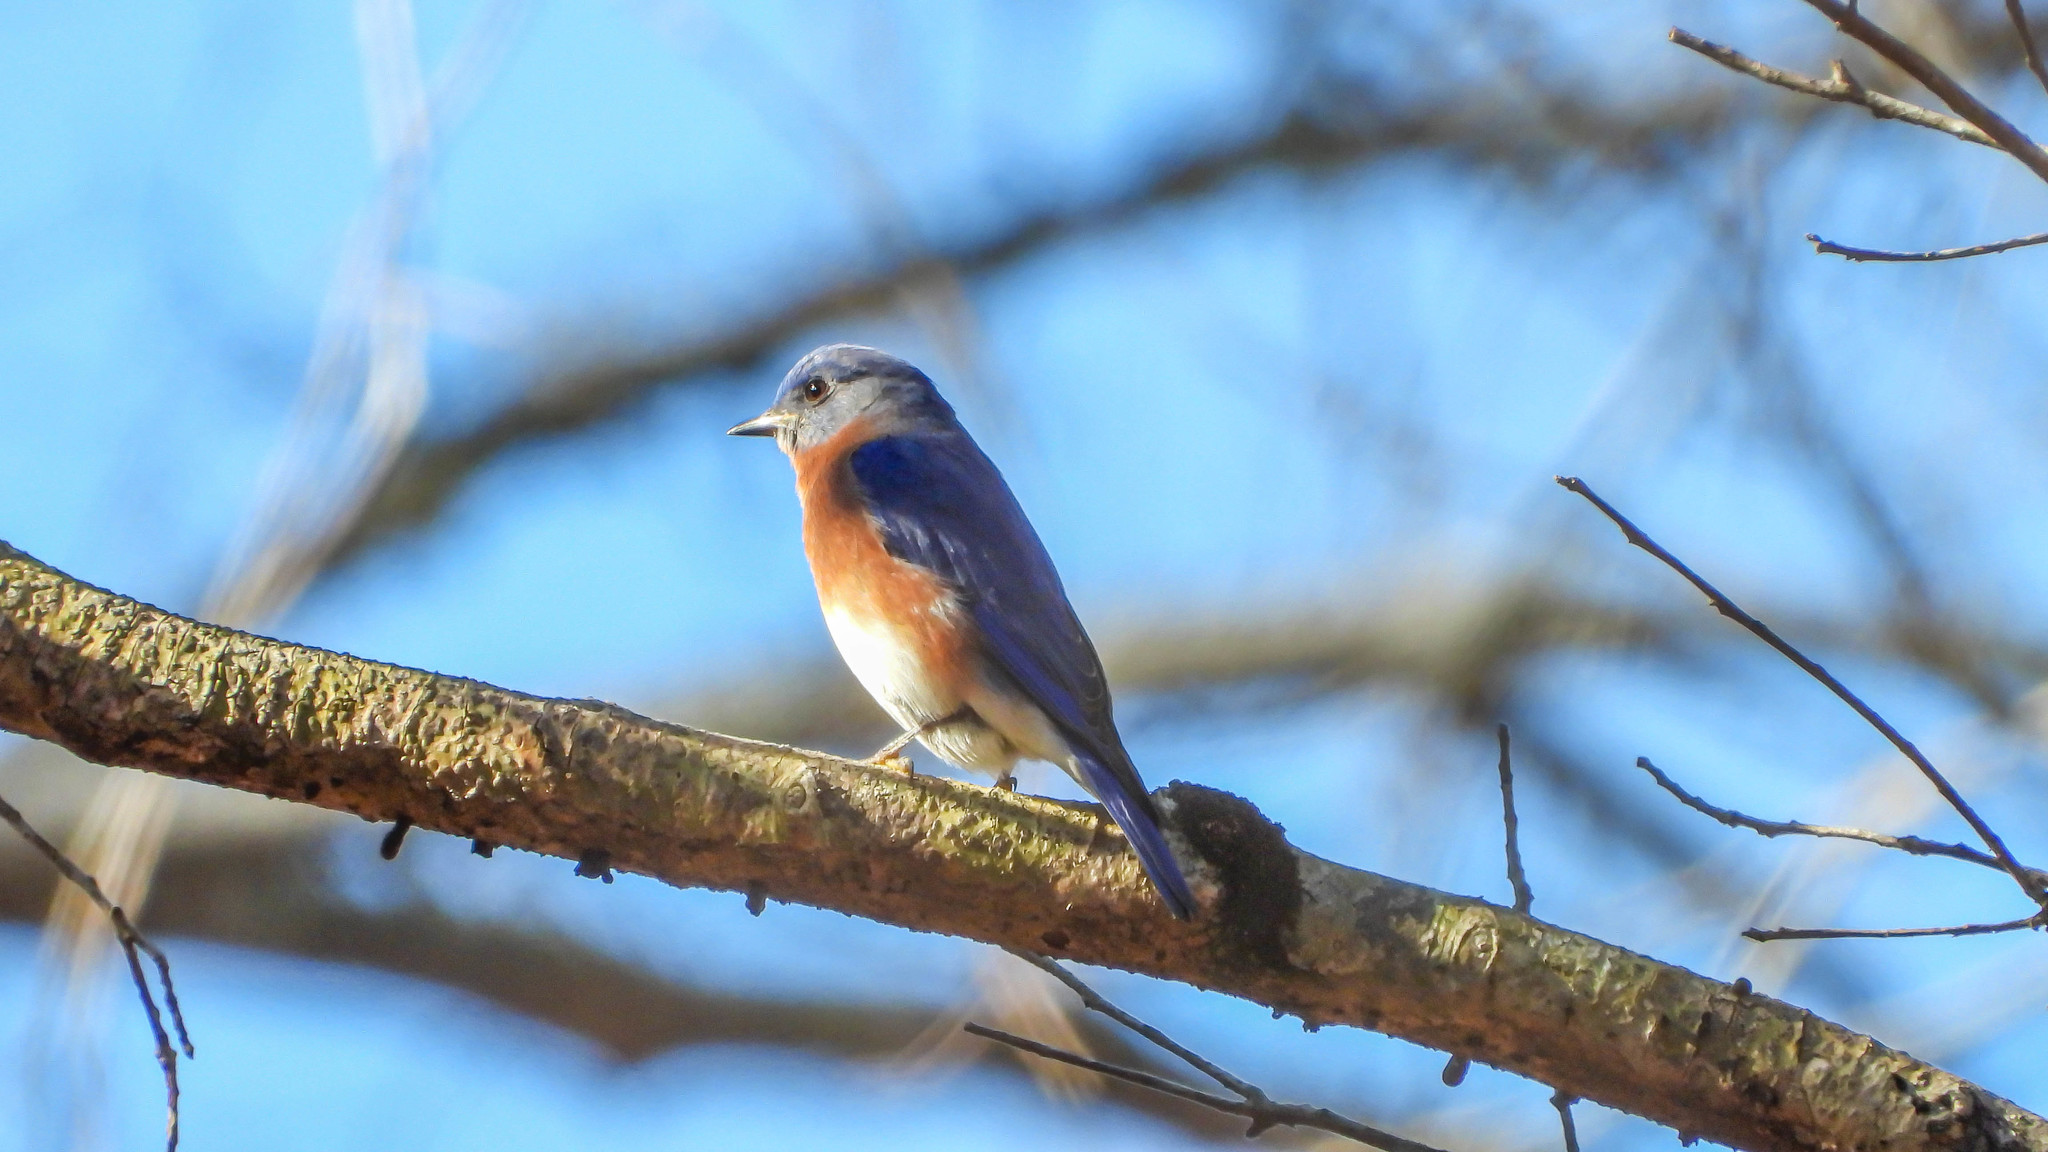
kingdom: Animalia
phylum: Chordata
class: Aves
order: Passeriformes
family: Turdidae
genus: Sialia
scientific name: Sialia sialis
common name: Eastern bluebird
